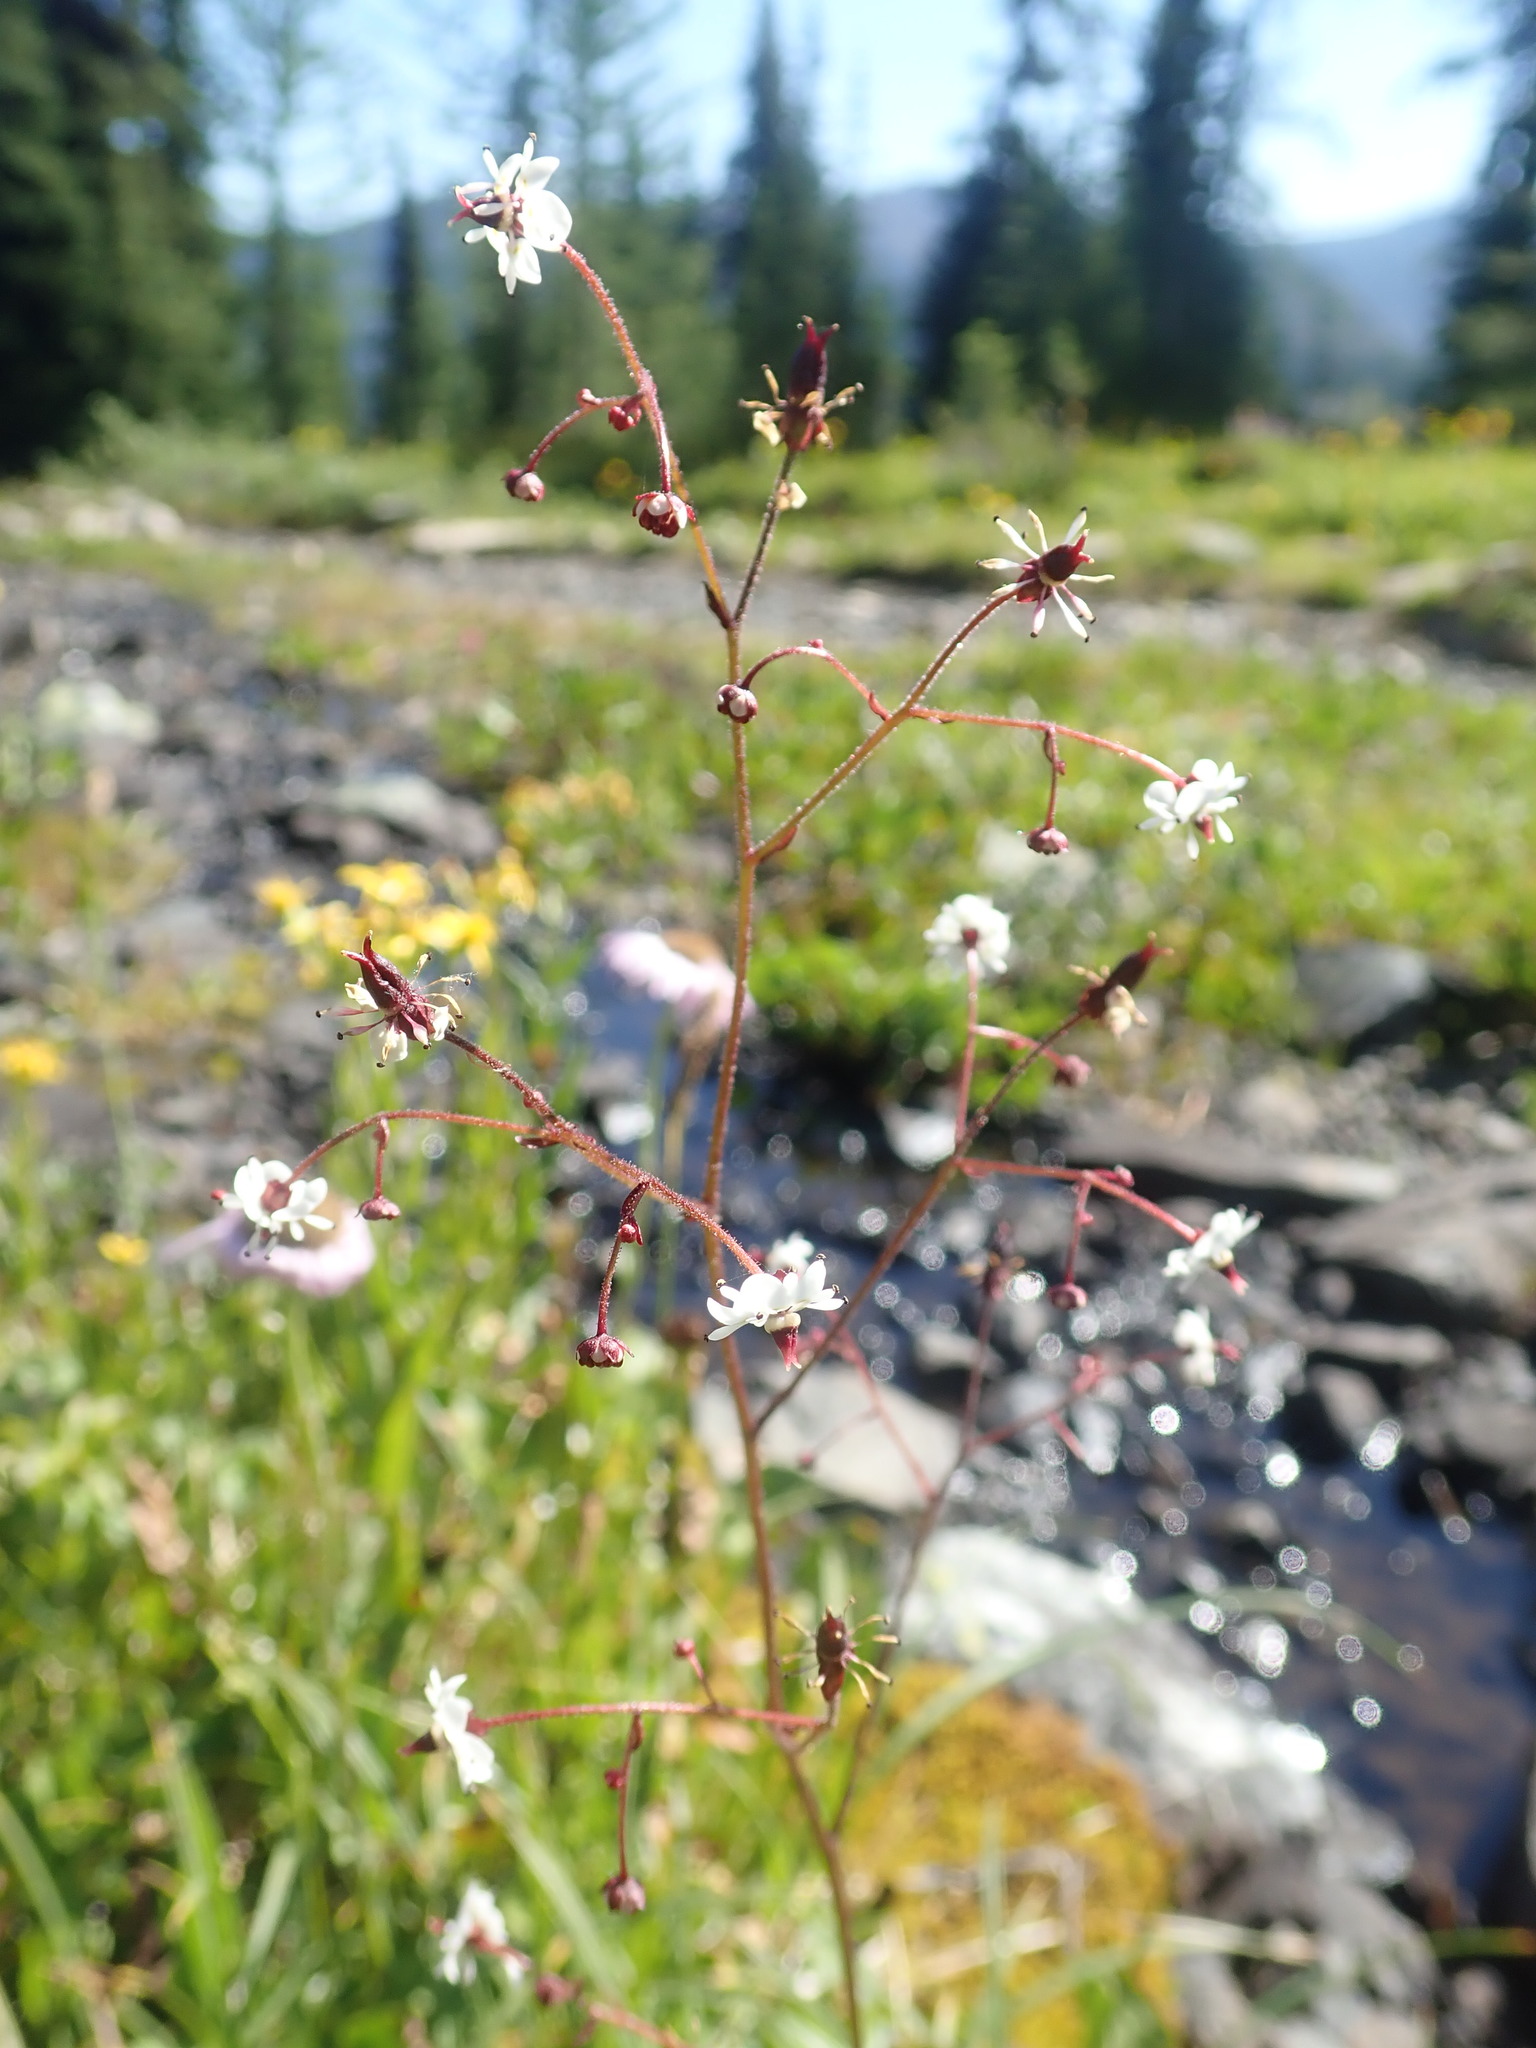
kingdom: Plantae
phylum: Tracheophyta
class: Magnoliopsida
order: Saxifragales
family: Saxifragaceae
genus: Micranthes
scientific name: Micranthes odontoloma
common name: Brook saxifrage
